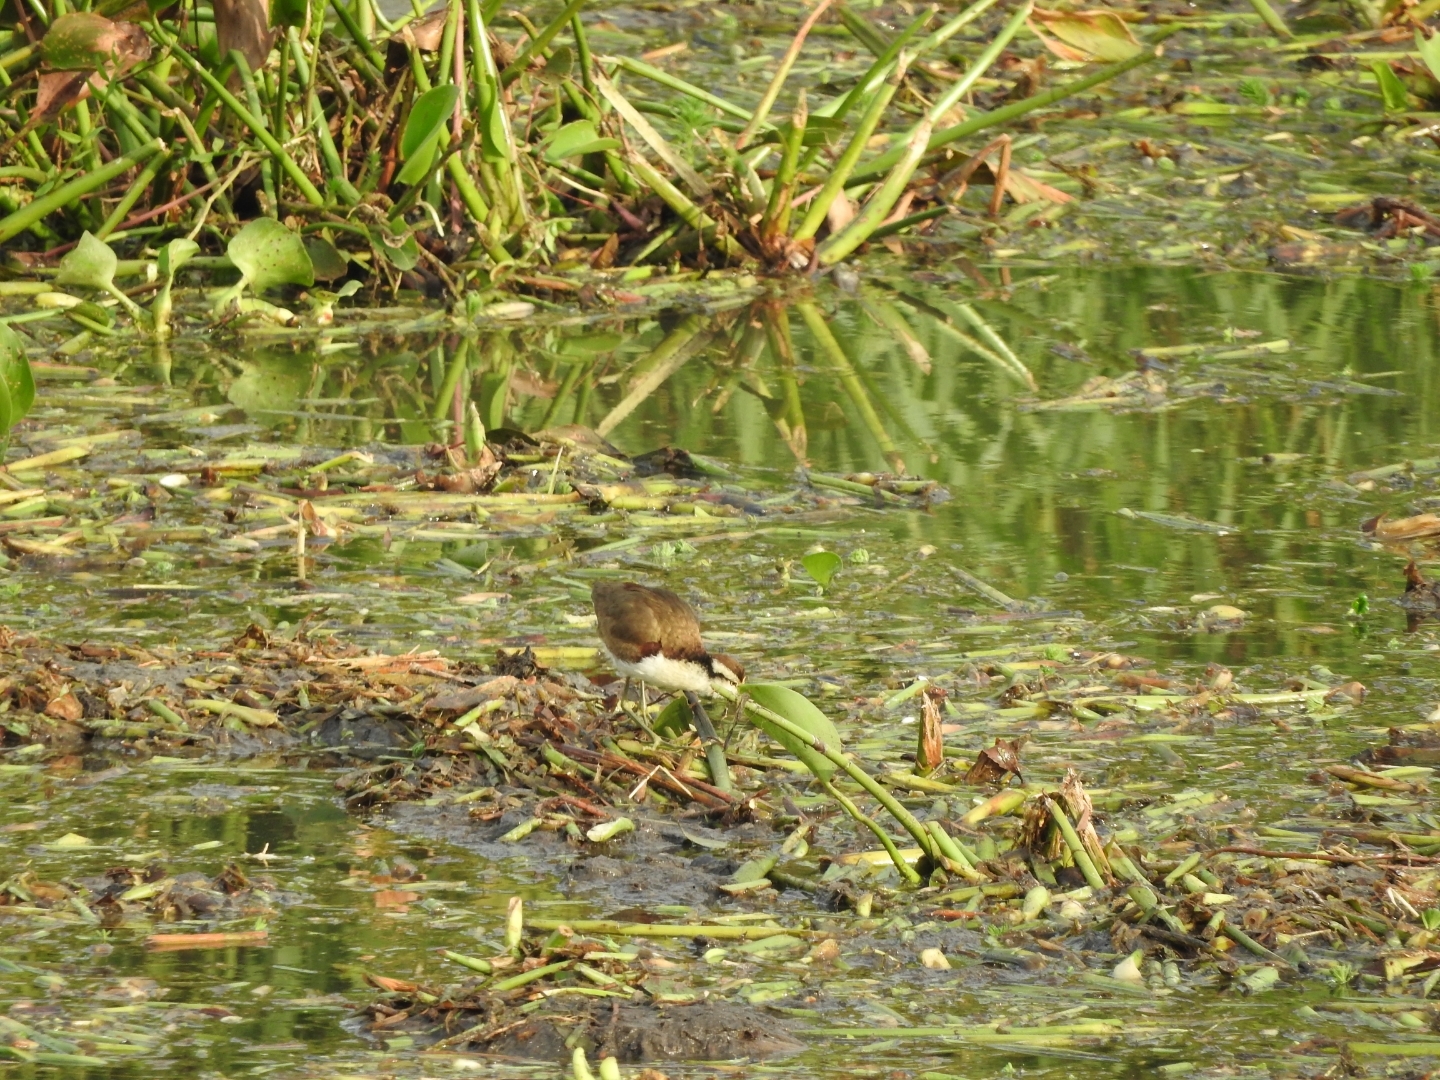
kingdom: Animalia
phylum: Chordata
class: Aves
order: Charadriiformes
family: Jacanidae
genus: Jacana
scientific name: Jacana spinosa
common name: Northern jacana
